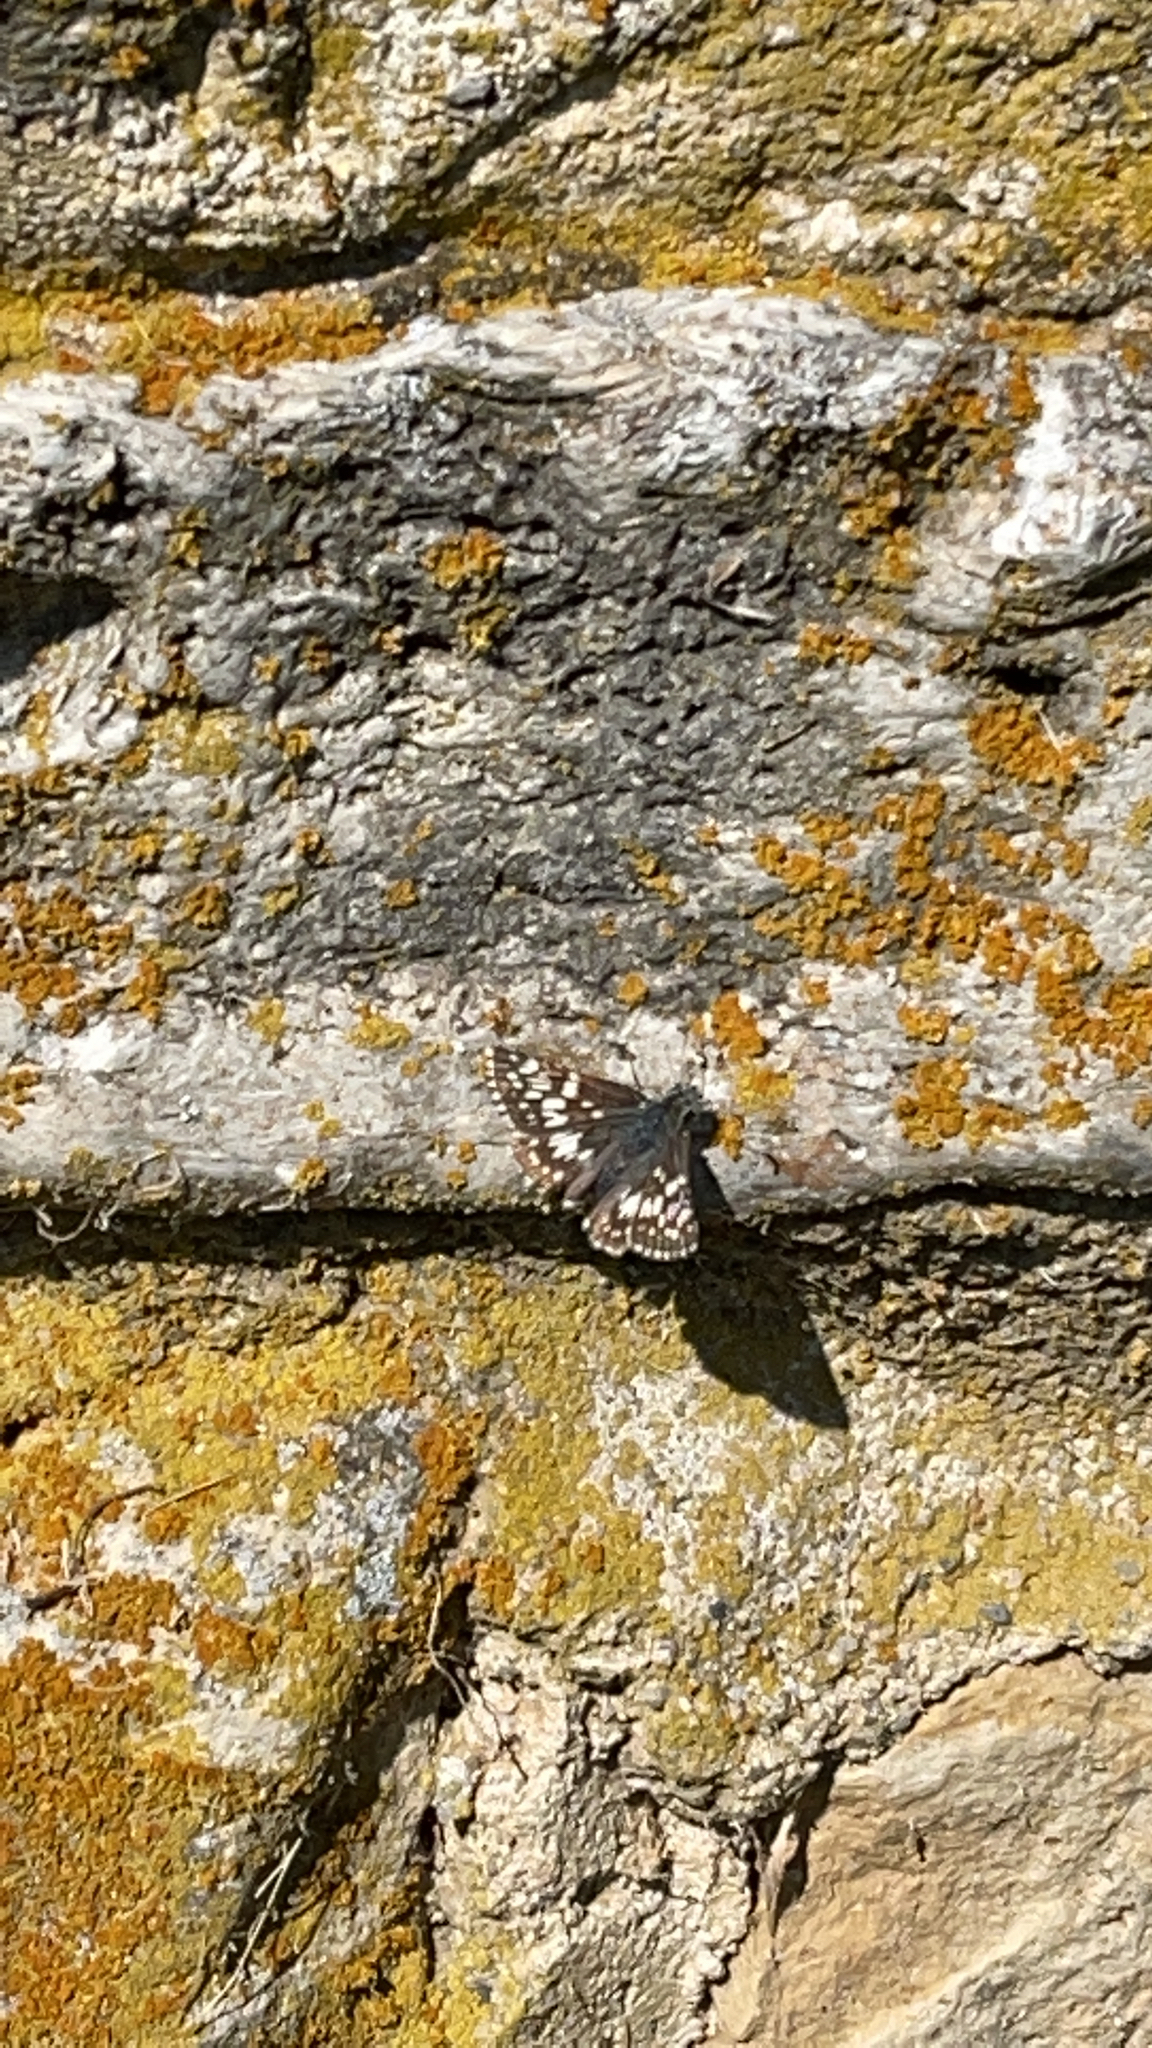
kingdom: Animalia
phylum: Arthropoda
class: Insecta
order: Lepidoptera
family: Hesperiidae
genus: Burnsius
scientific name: Burnsius communis
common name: Common checkered-skipper
